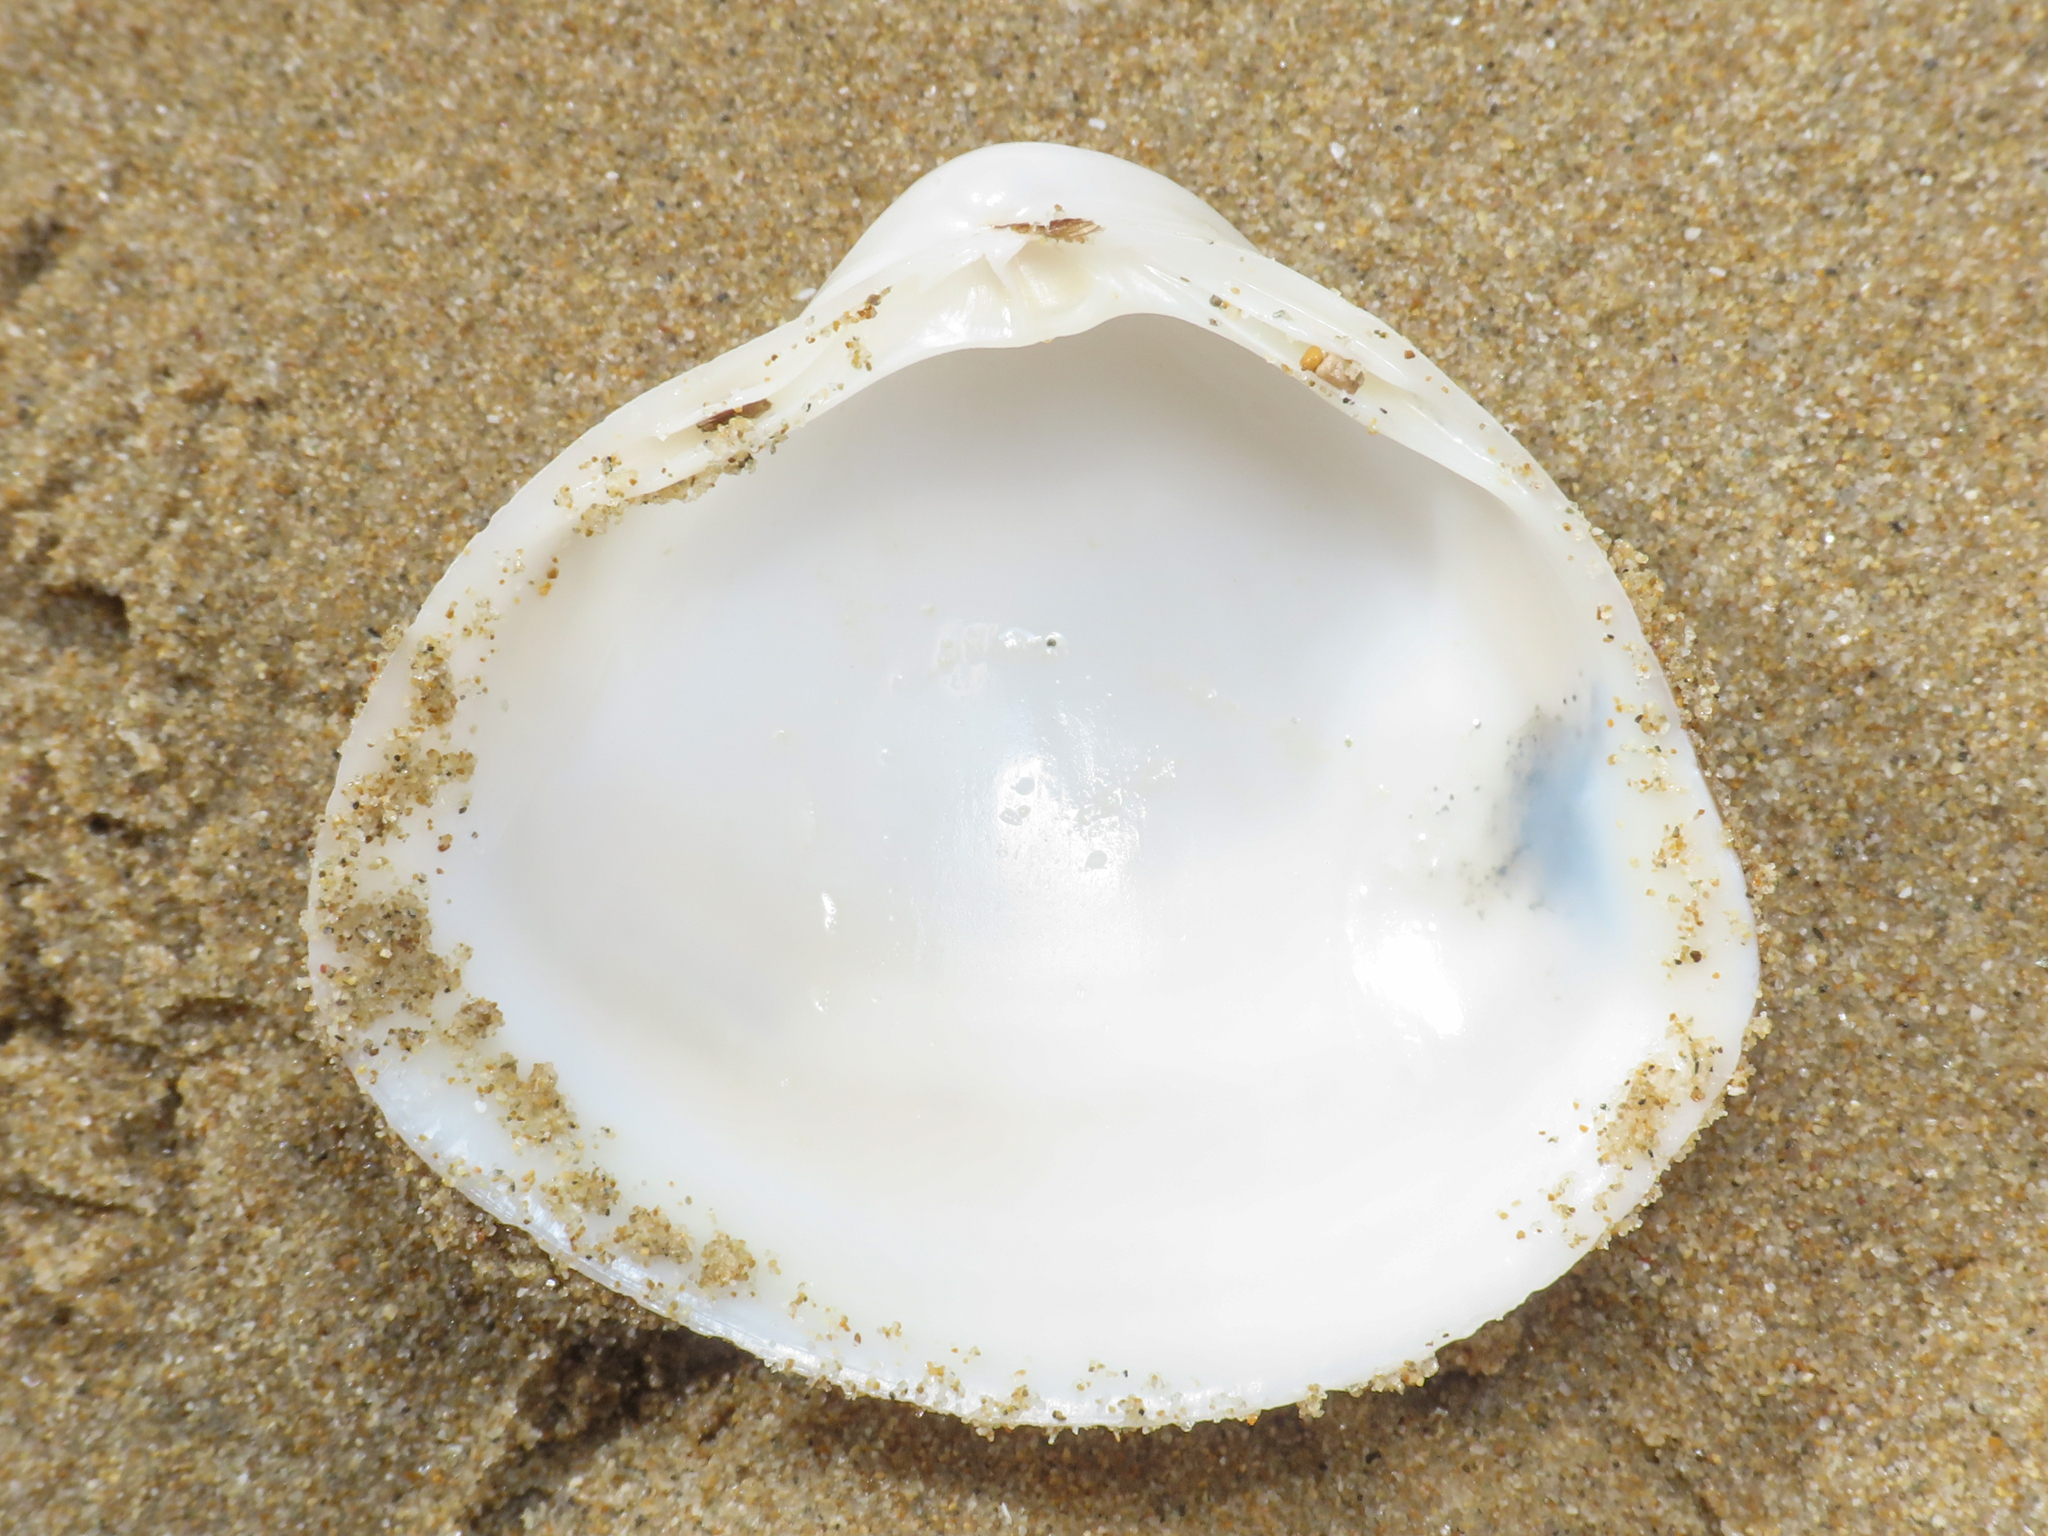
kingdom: Animalia
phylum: Mollusca
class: Bivalvia
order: Venerida
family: Mactridae
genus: Mactra
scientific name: Mactra stultorum
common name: Rayed trough shell
